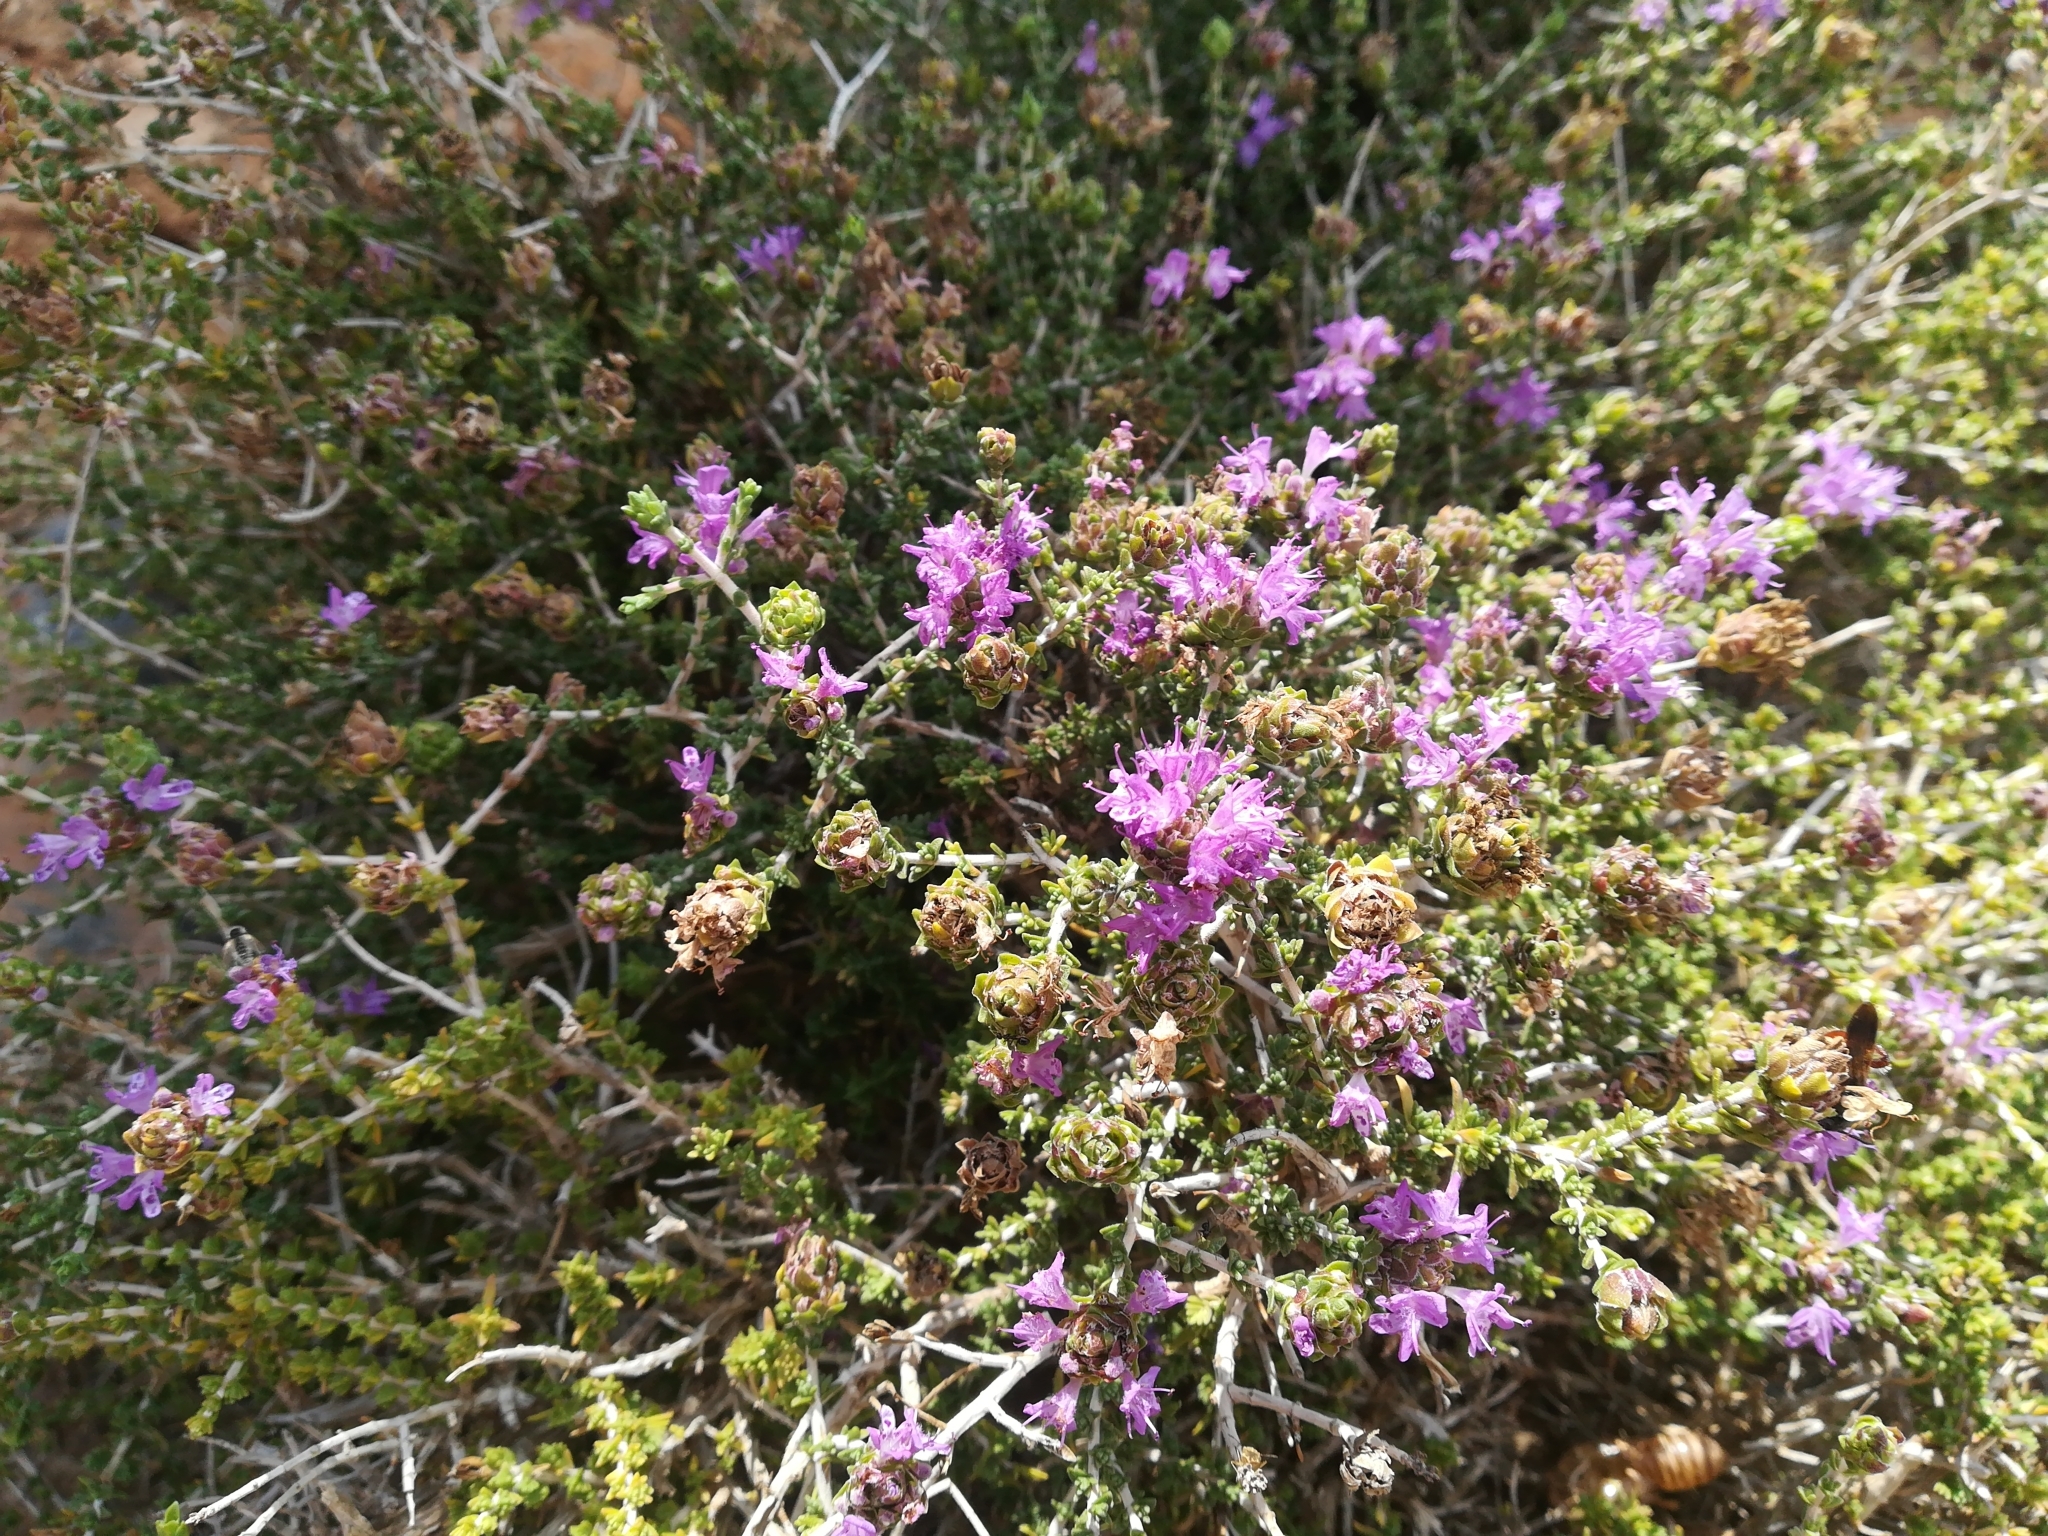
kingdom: Plantae
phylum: Tracheophyta
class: Magnoliopsida
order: Lamiales
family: Lamiaceae
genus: Thymbra
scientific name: Thymbra capitata
